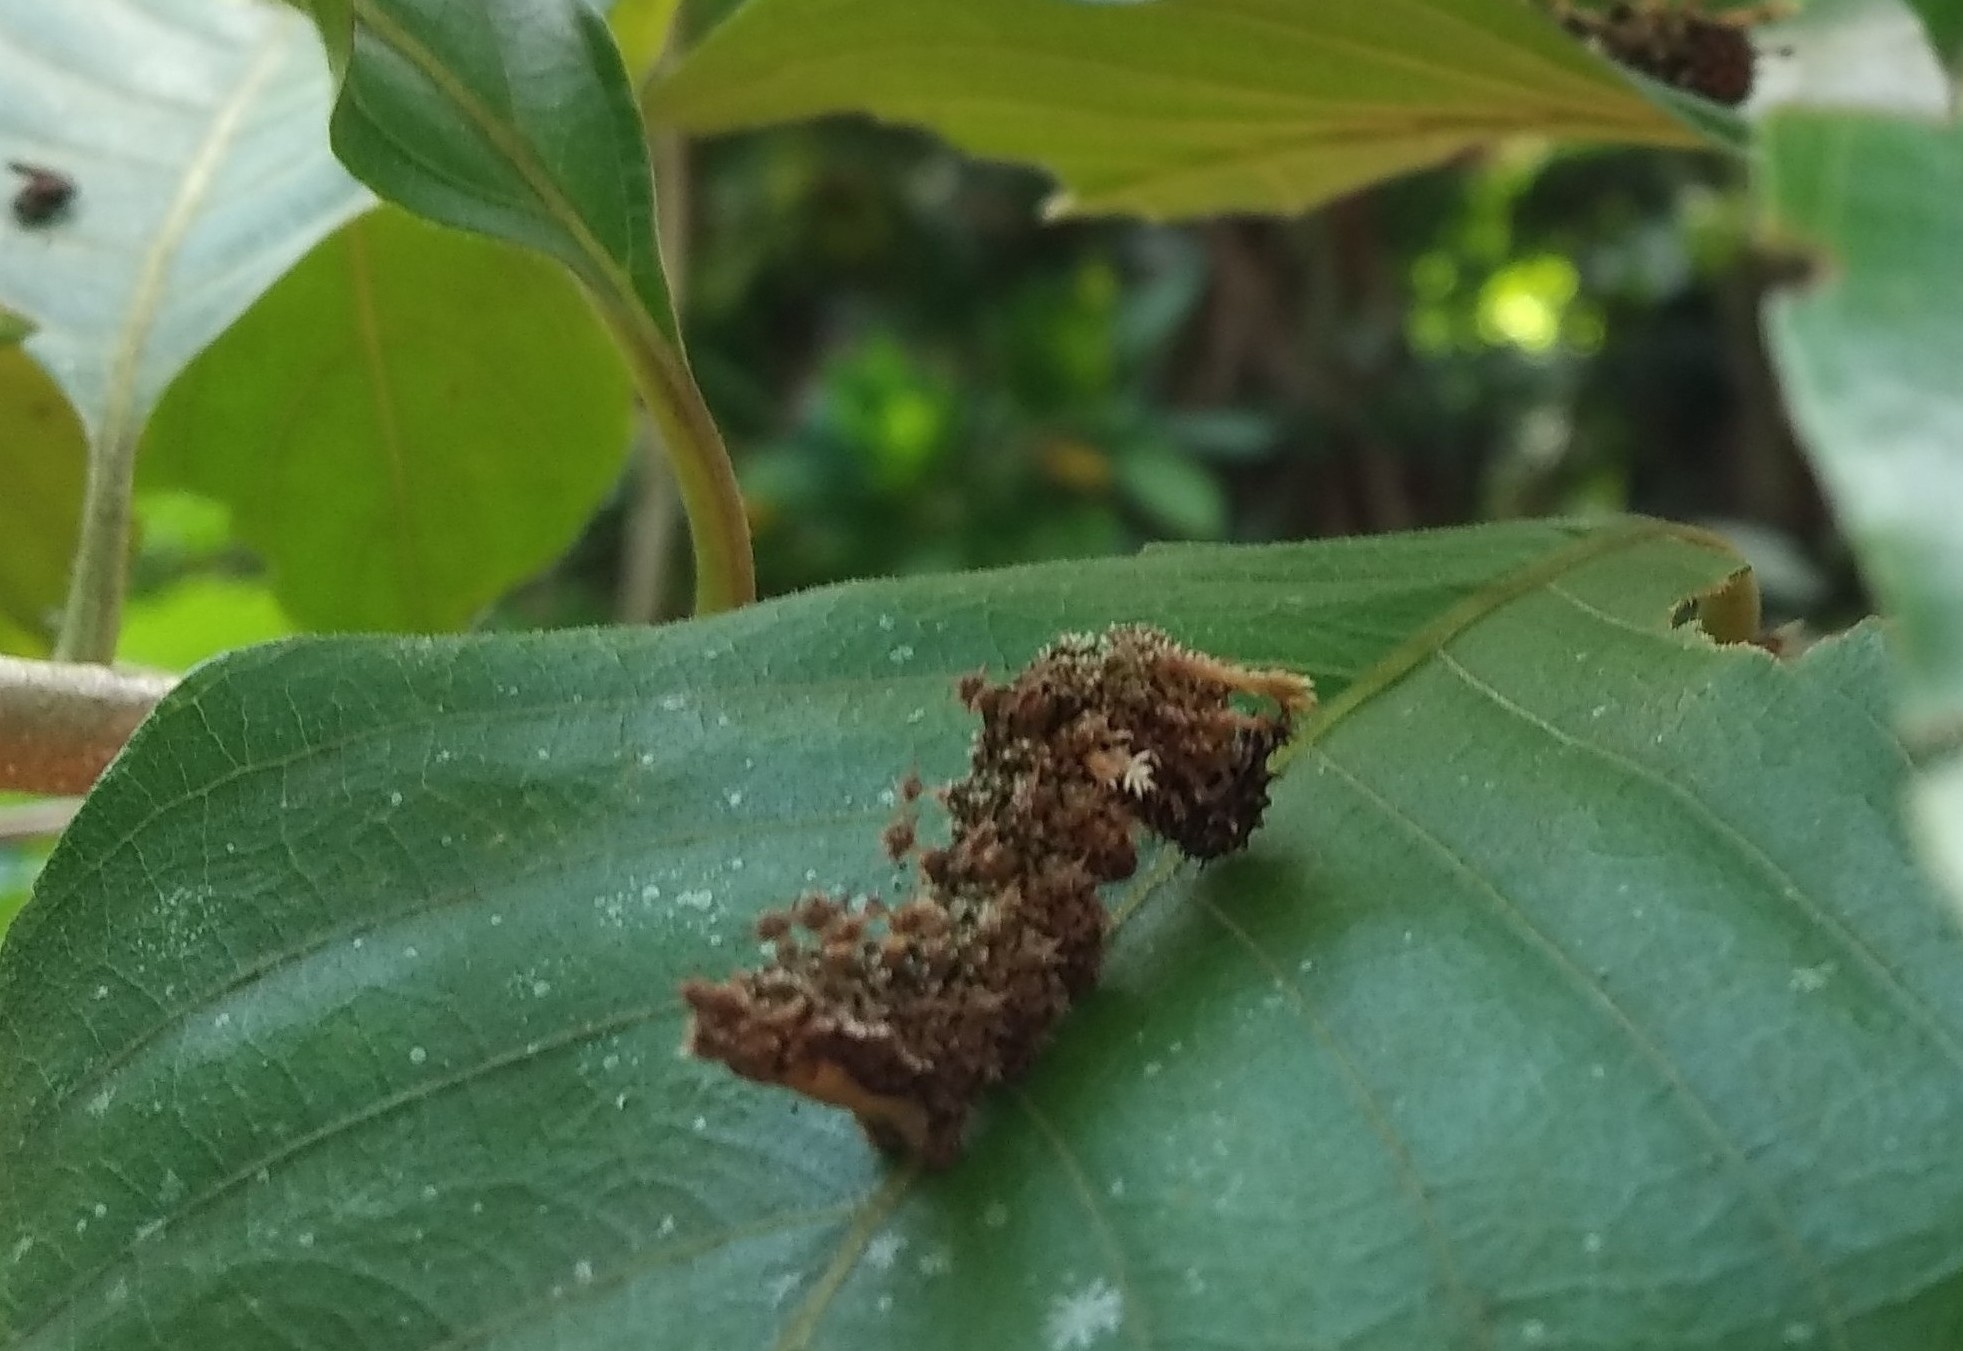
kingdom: Animalia
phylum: Arthropoda
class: Insecta
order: Lepidoptera
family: Nymphalidae
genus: Limenitis
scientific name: Limenitis Moduza procris
